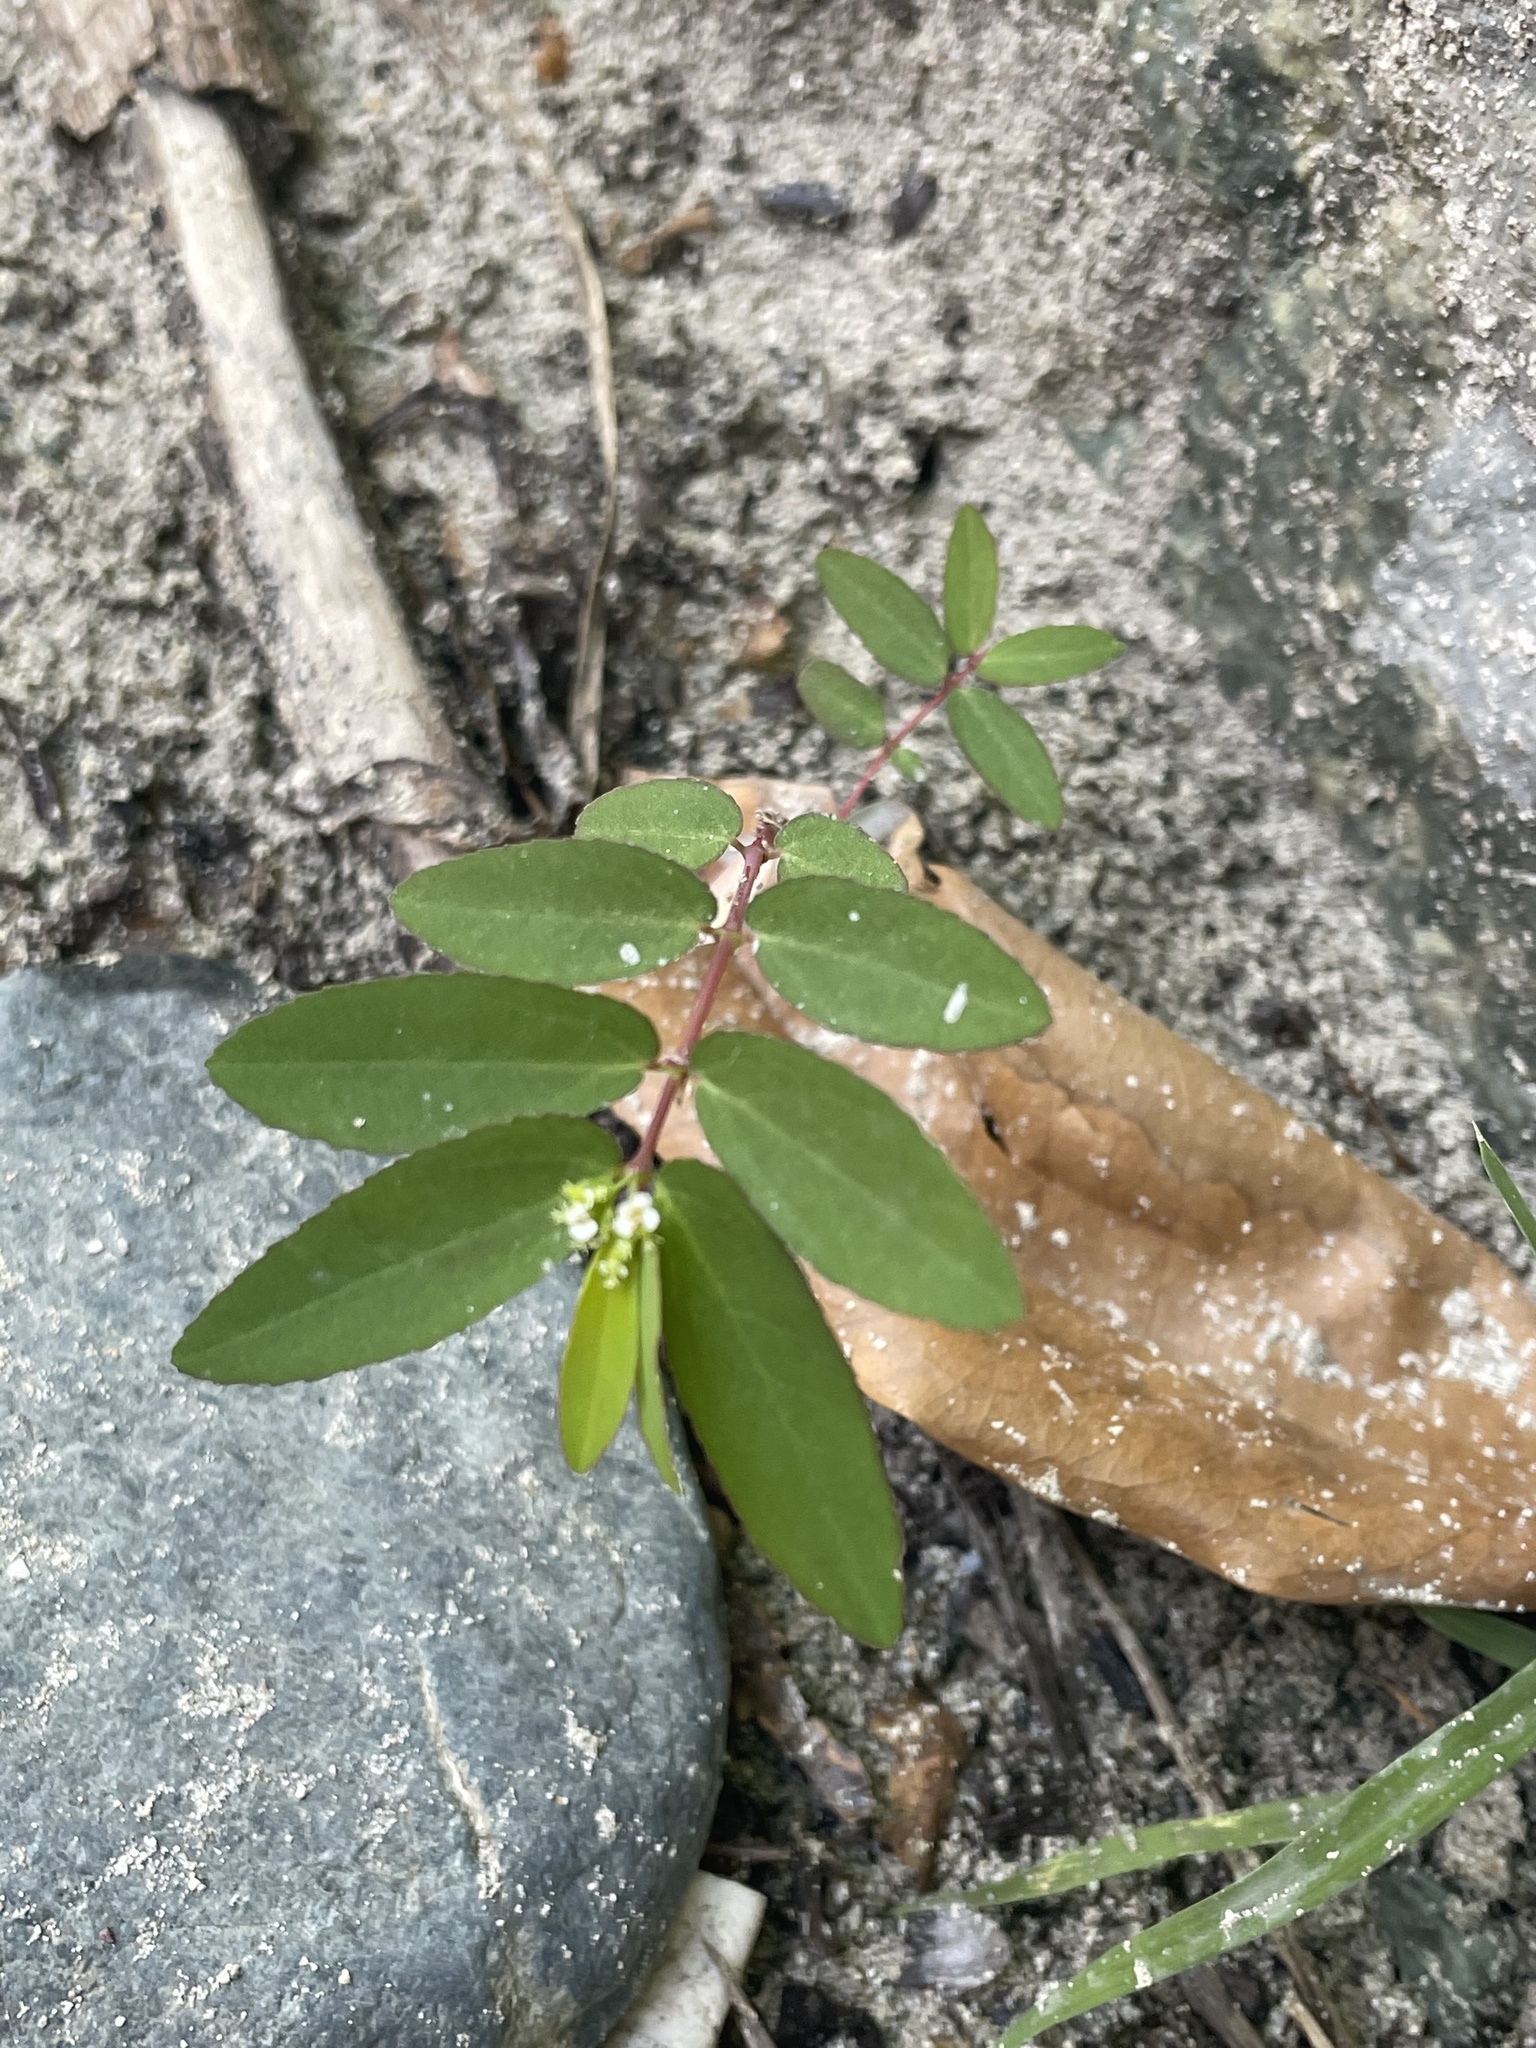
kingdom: Plantae
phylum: Tracheophyta
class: Magnoliopsida
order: Malpighiales
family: Euphorbiaceae
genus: Euphorbia
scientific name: Euphorbia hypericifolia
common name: Graceful sandmat
